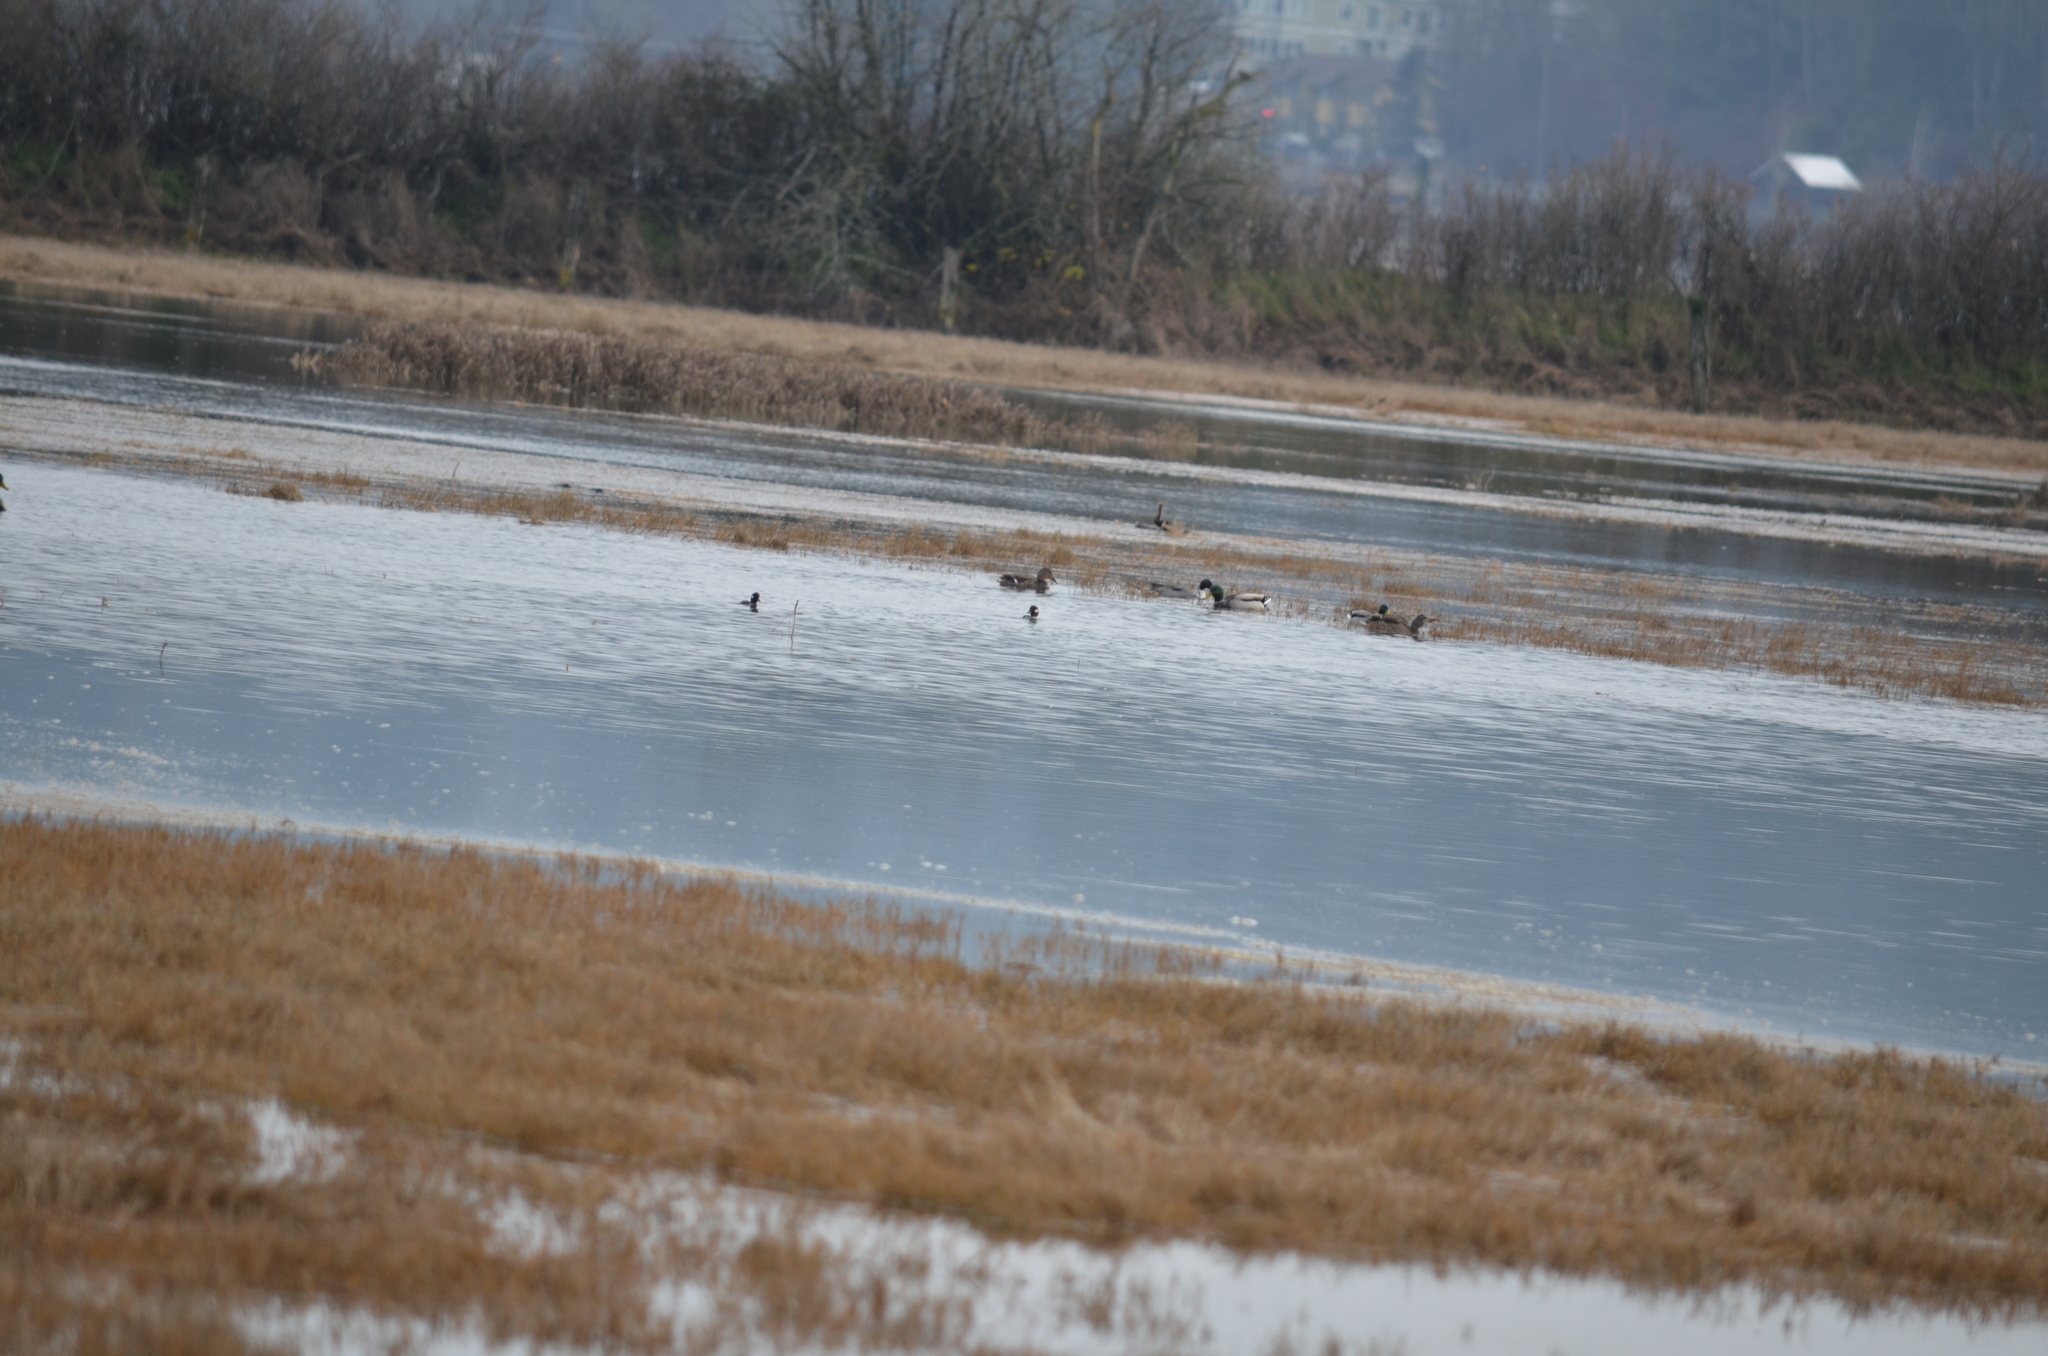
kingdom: Animalia
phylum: Chordata
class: Aves
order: Anseriformes
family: Anatidae
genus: Anas
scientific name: Anas platyrhynchos
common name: Mallard
